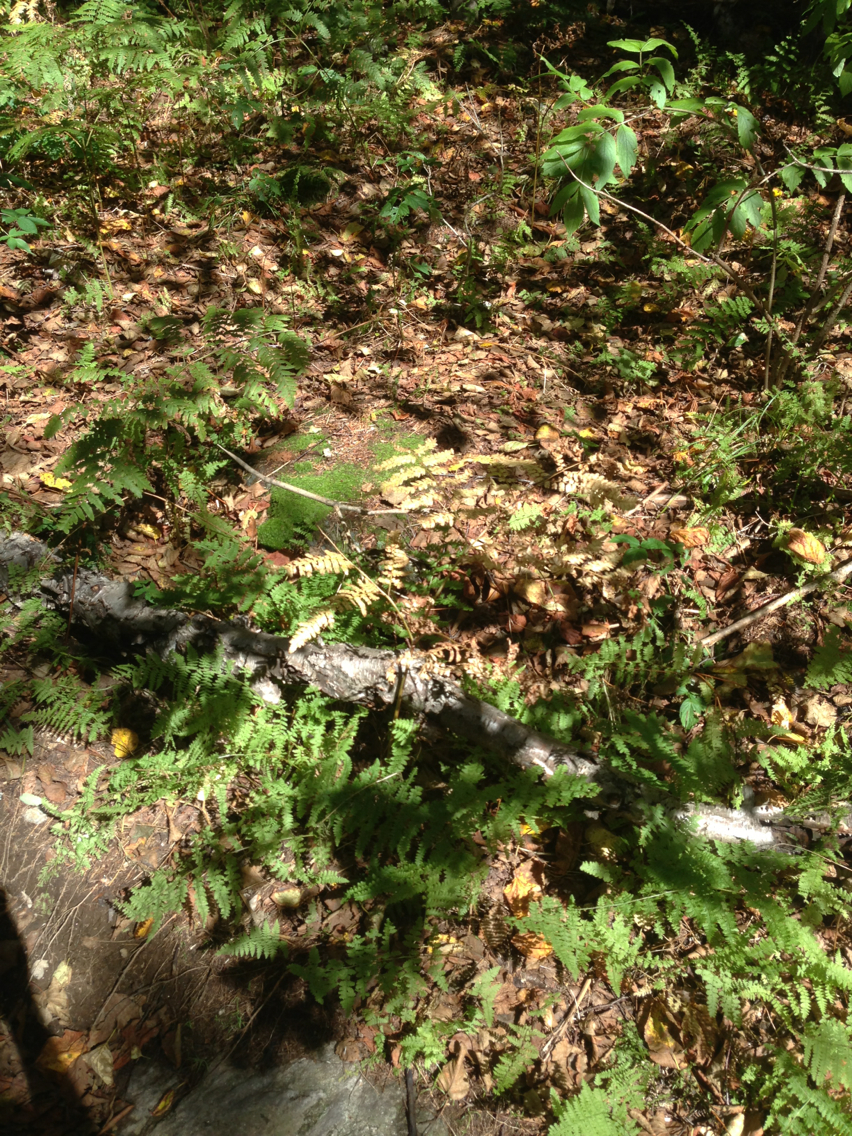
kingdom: Plantae
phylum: Tracheophyta
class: Polypodiopsida
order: Polypodiales
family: Dennstaedtiaceae
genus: Pteridium
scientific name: Pteridium aquilinum
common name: Bracken
